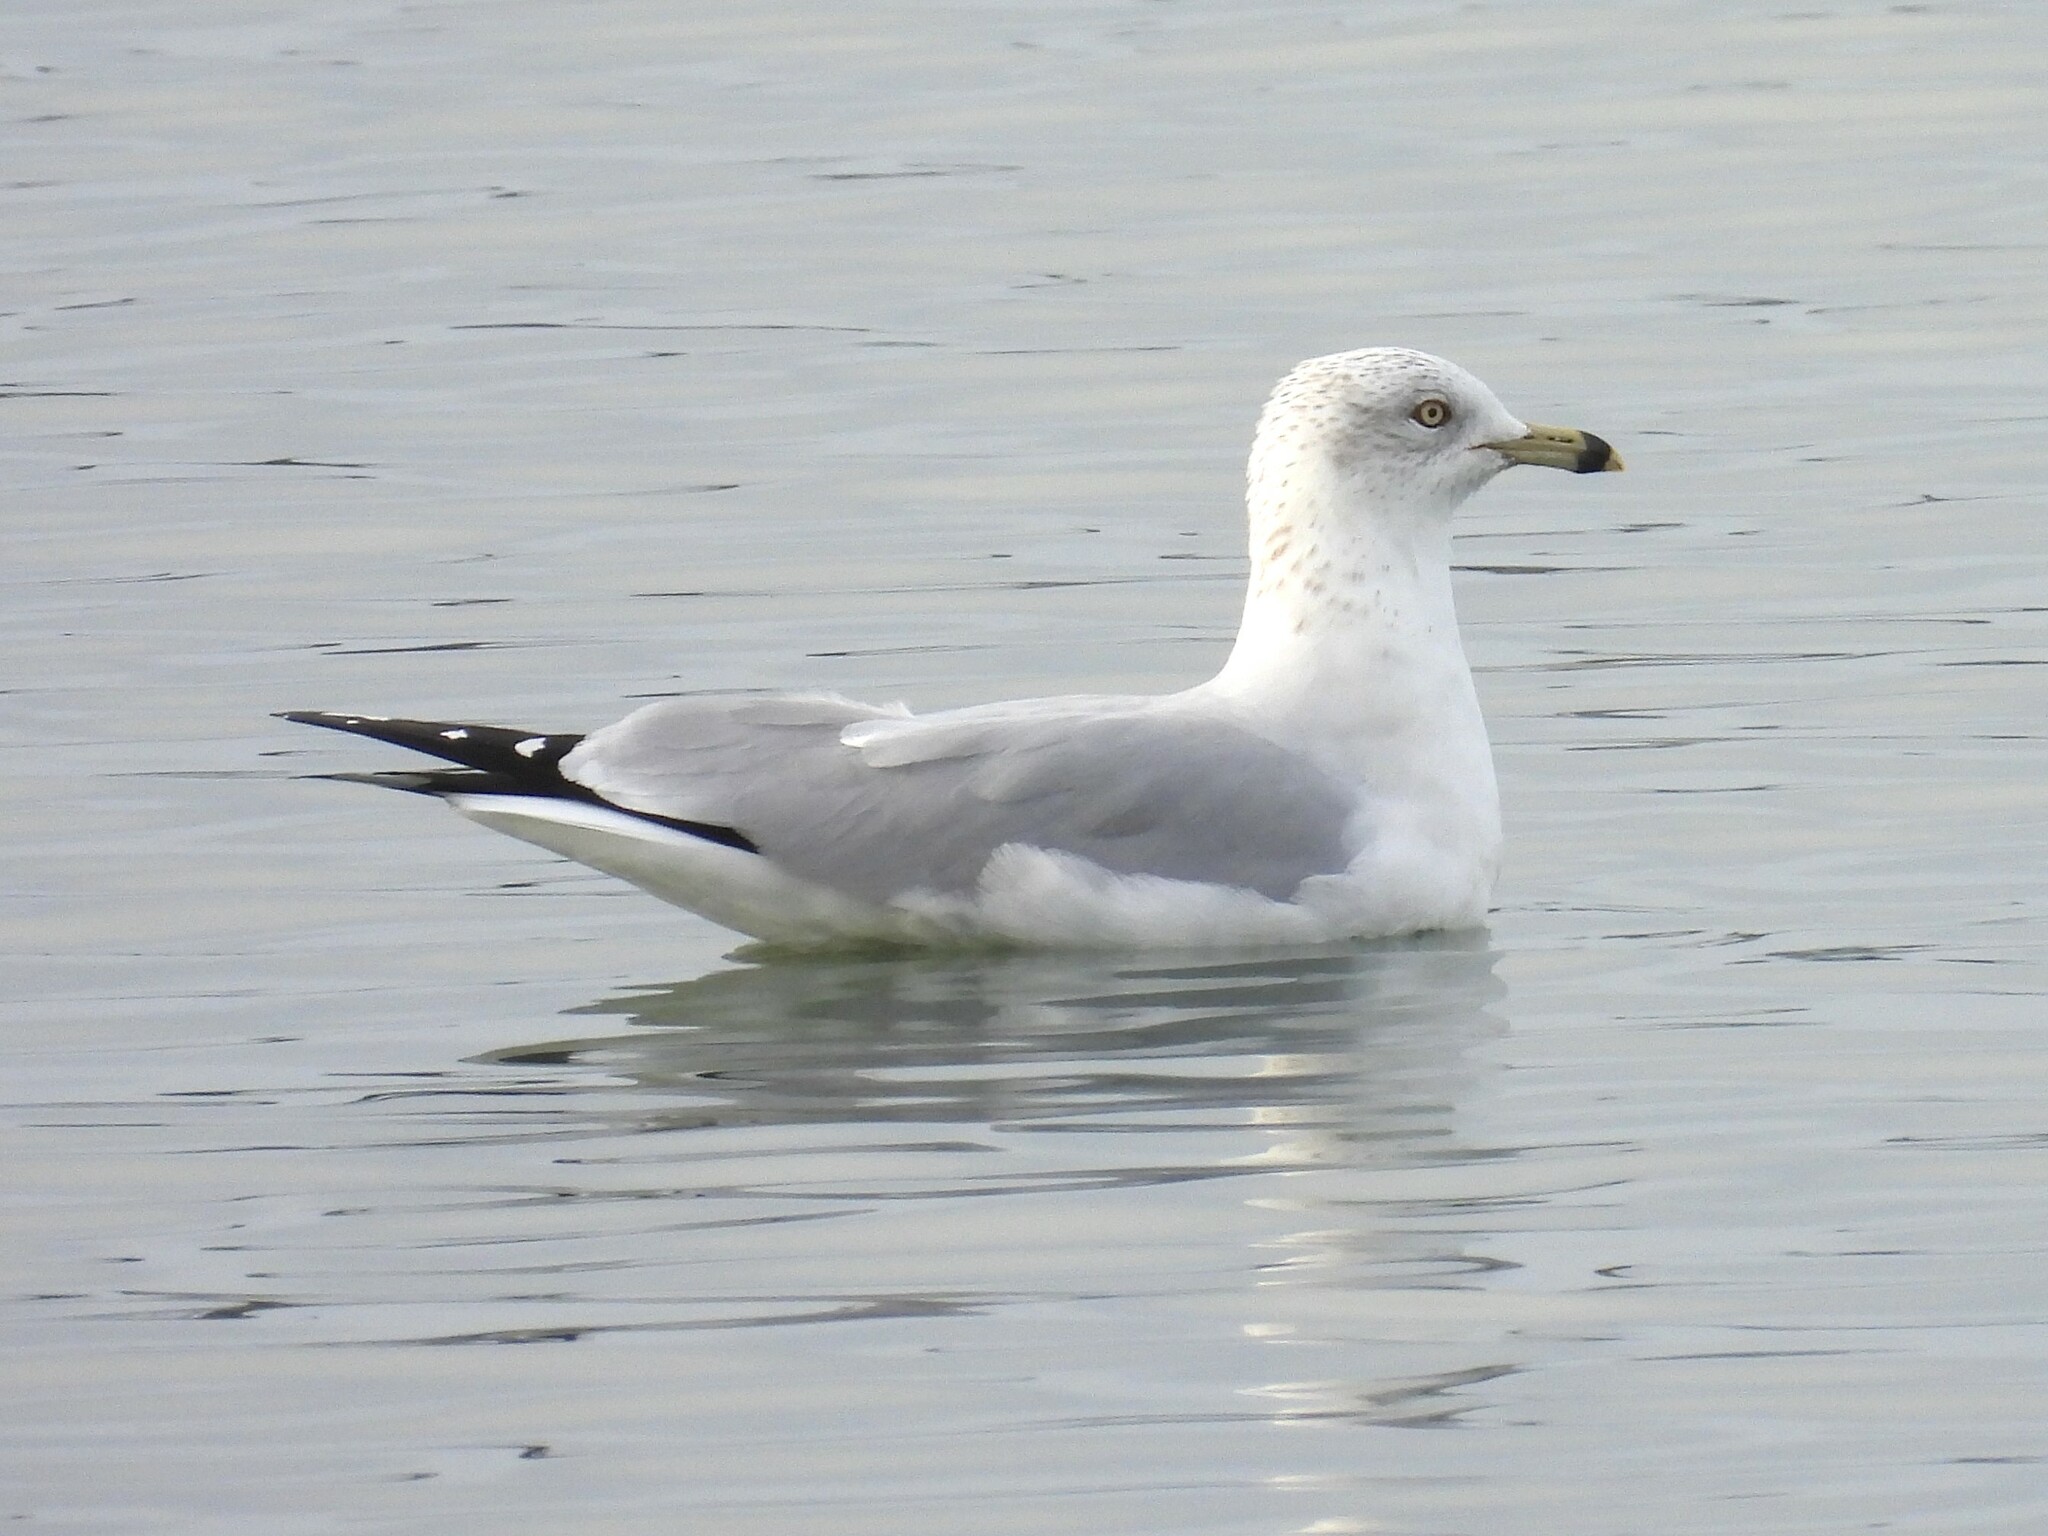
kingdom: Animalia
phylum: Chordata
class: Aves
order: Charadriiformes
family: Laridae
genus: Larus
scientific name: Larus delawarensis
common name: Ring-billed gull
